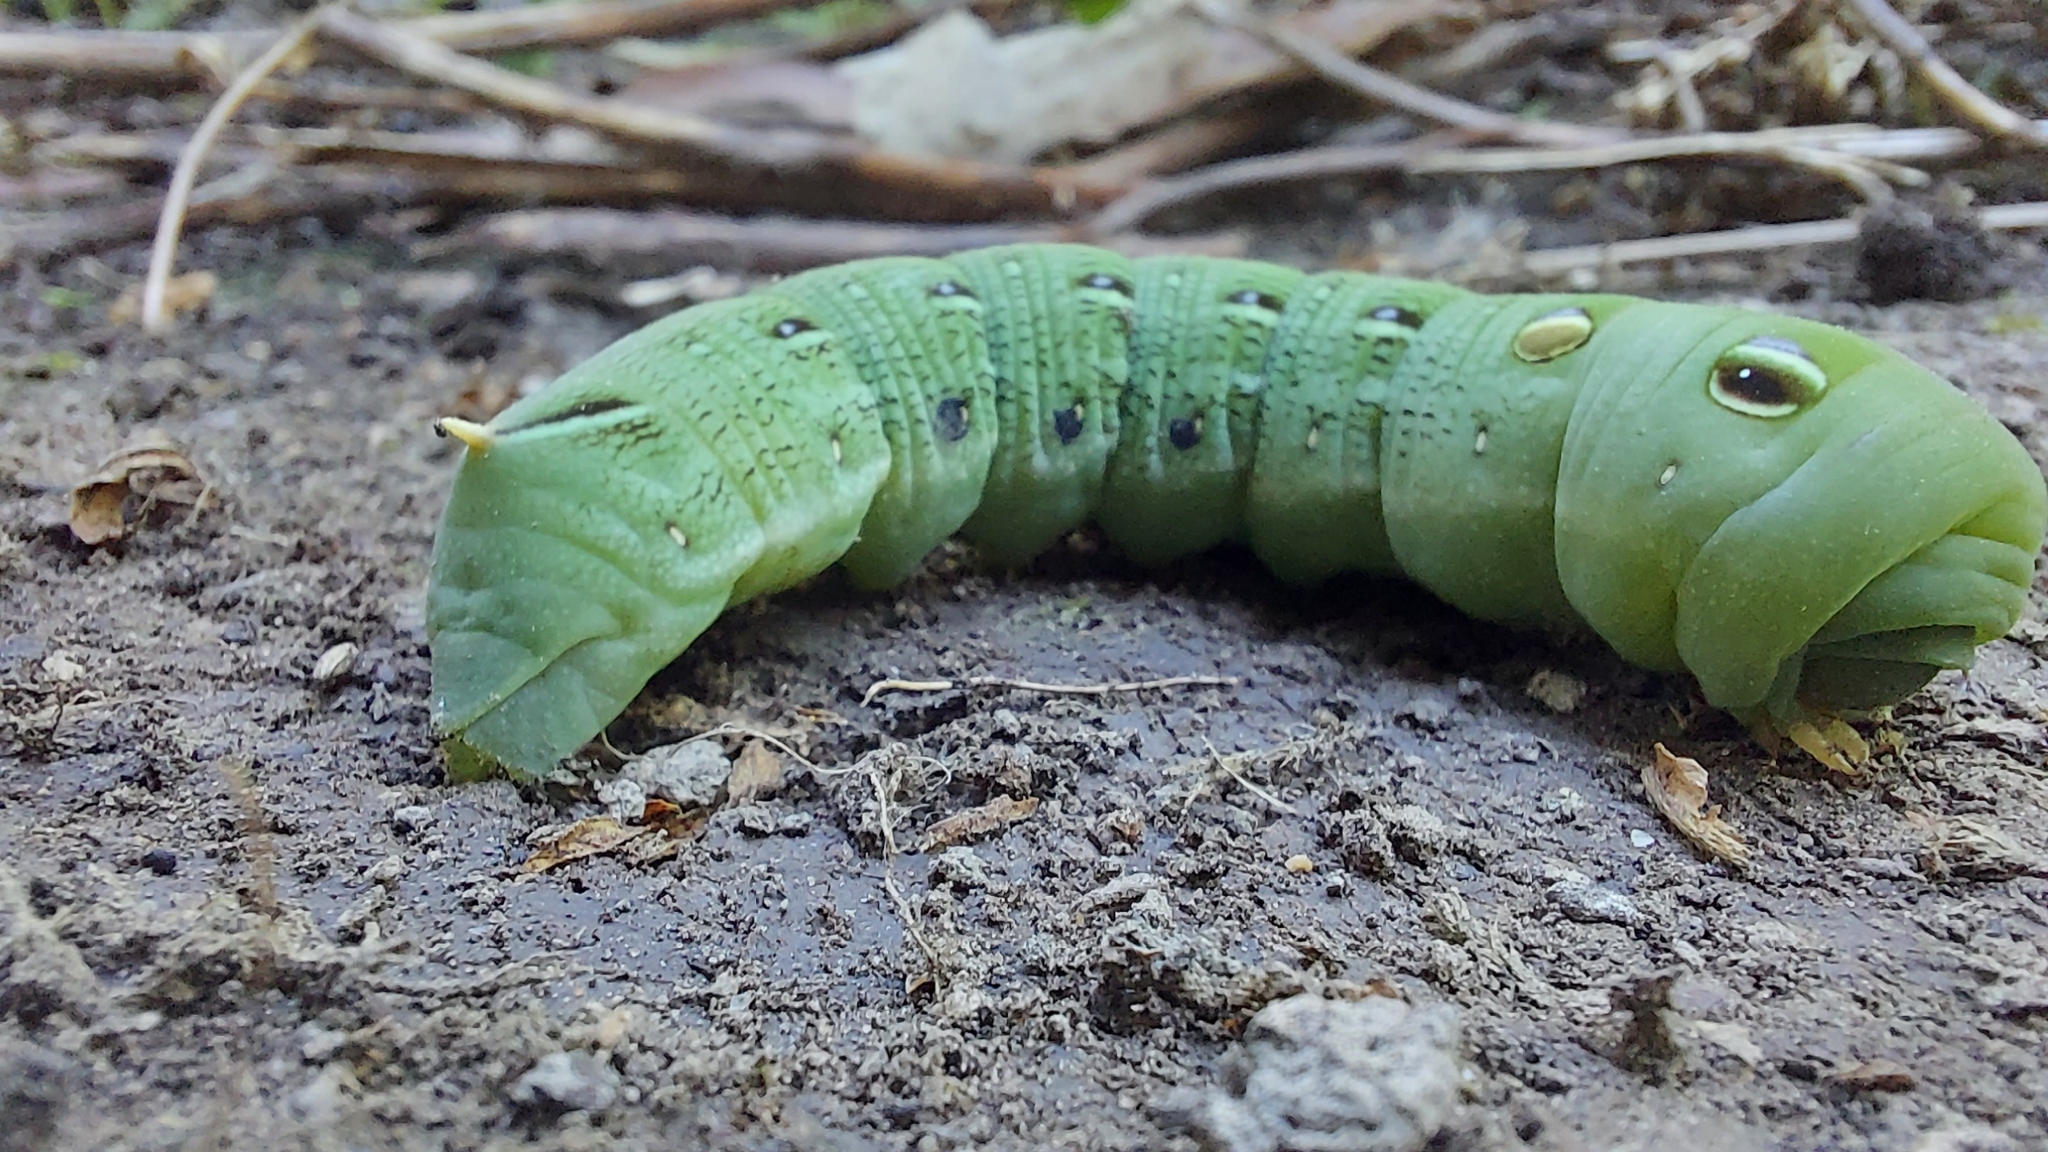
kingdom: Animalia
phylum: Arthropoda
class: Insecta
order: Lepidoptera
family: Sphingidae
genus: Hippotion
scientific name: Hippotion scrofa
